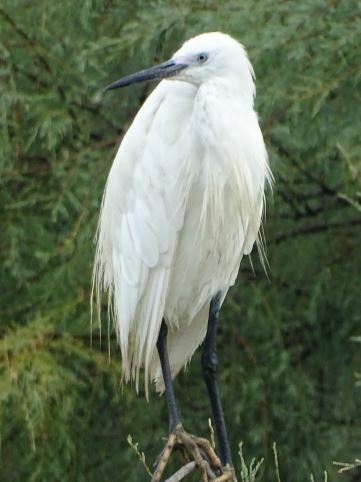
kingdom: Animalia
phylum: Chordata
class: Aves
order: Pelecaniformes
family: Ardeidae
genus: Egretta
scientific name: Egretta garzetta
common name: Little egret
